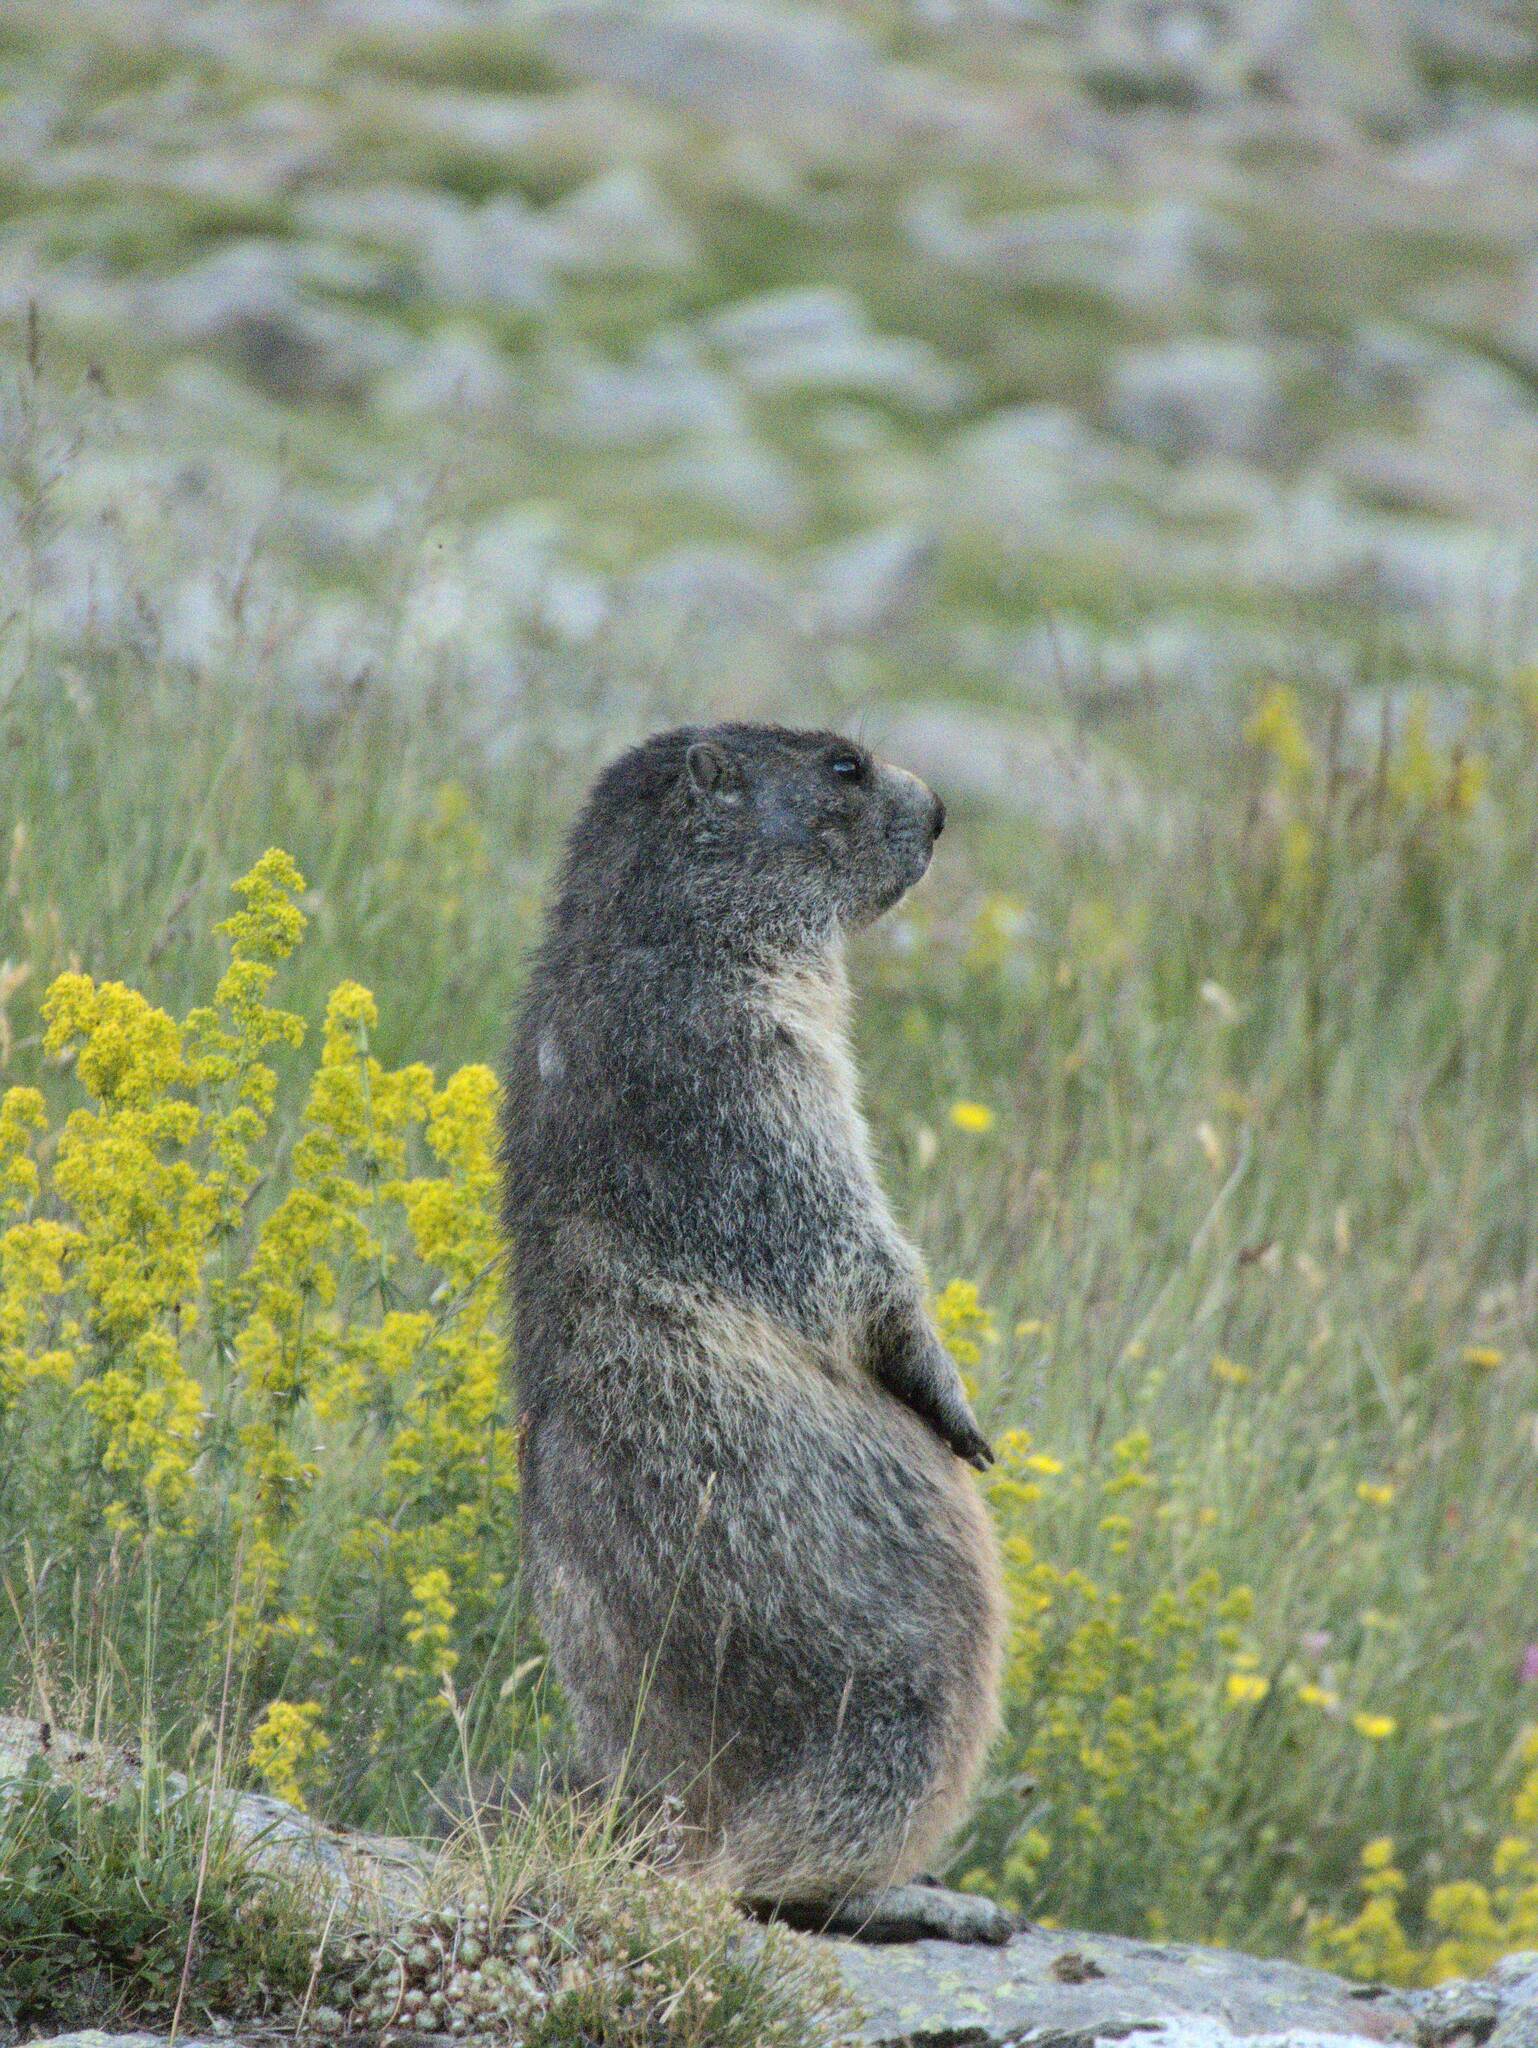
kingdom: Animalia
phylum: Chordata
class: Mammalia
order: Rodentia
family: Sciuridae
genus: Marmota
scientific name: Marmota marmota
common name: Alpine marmot
